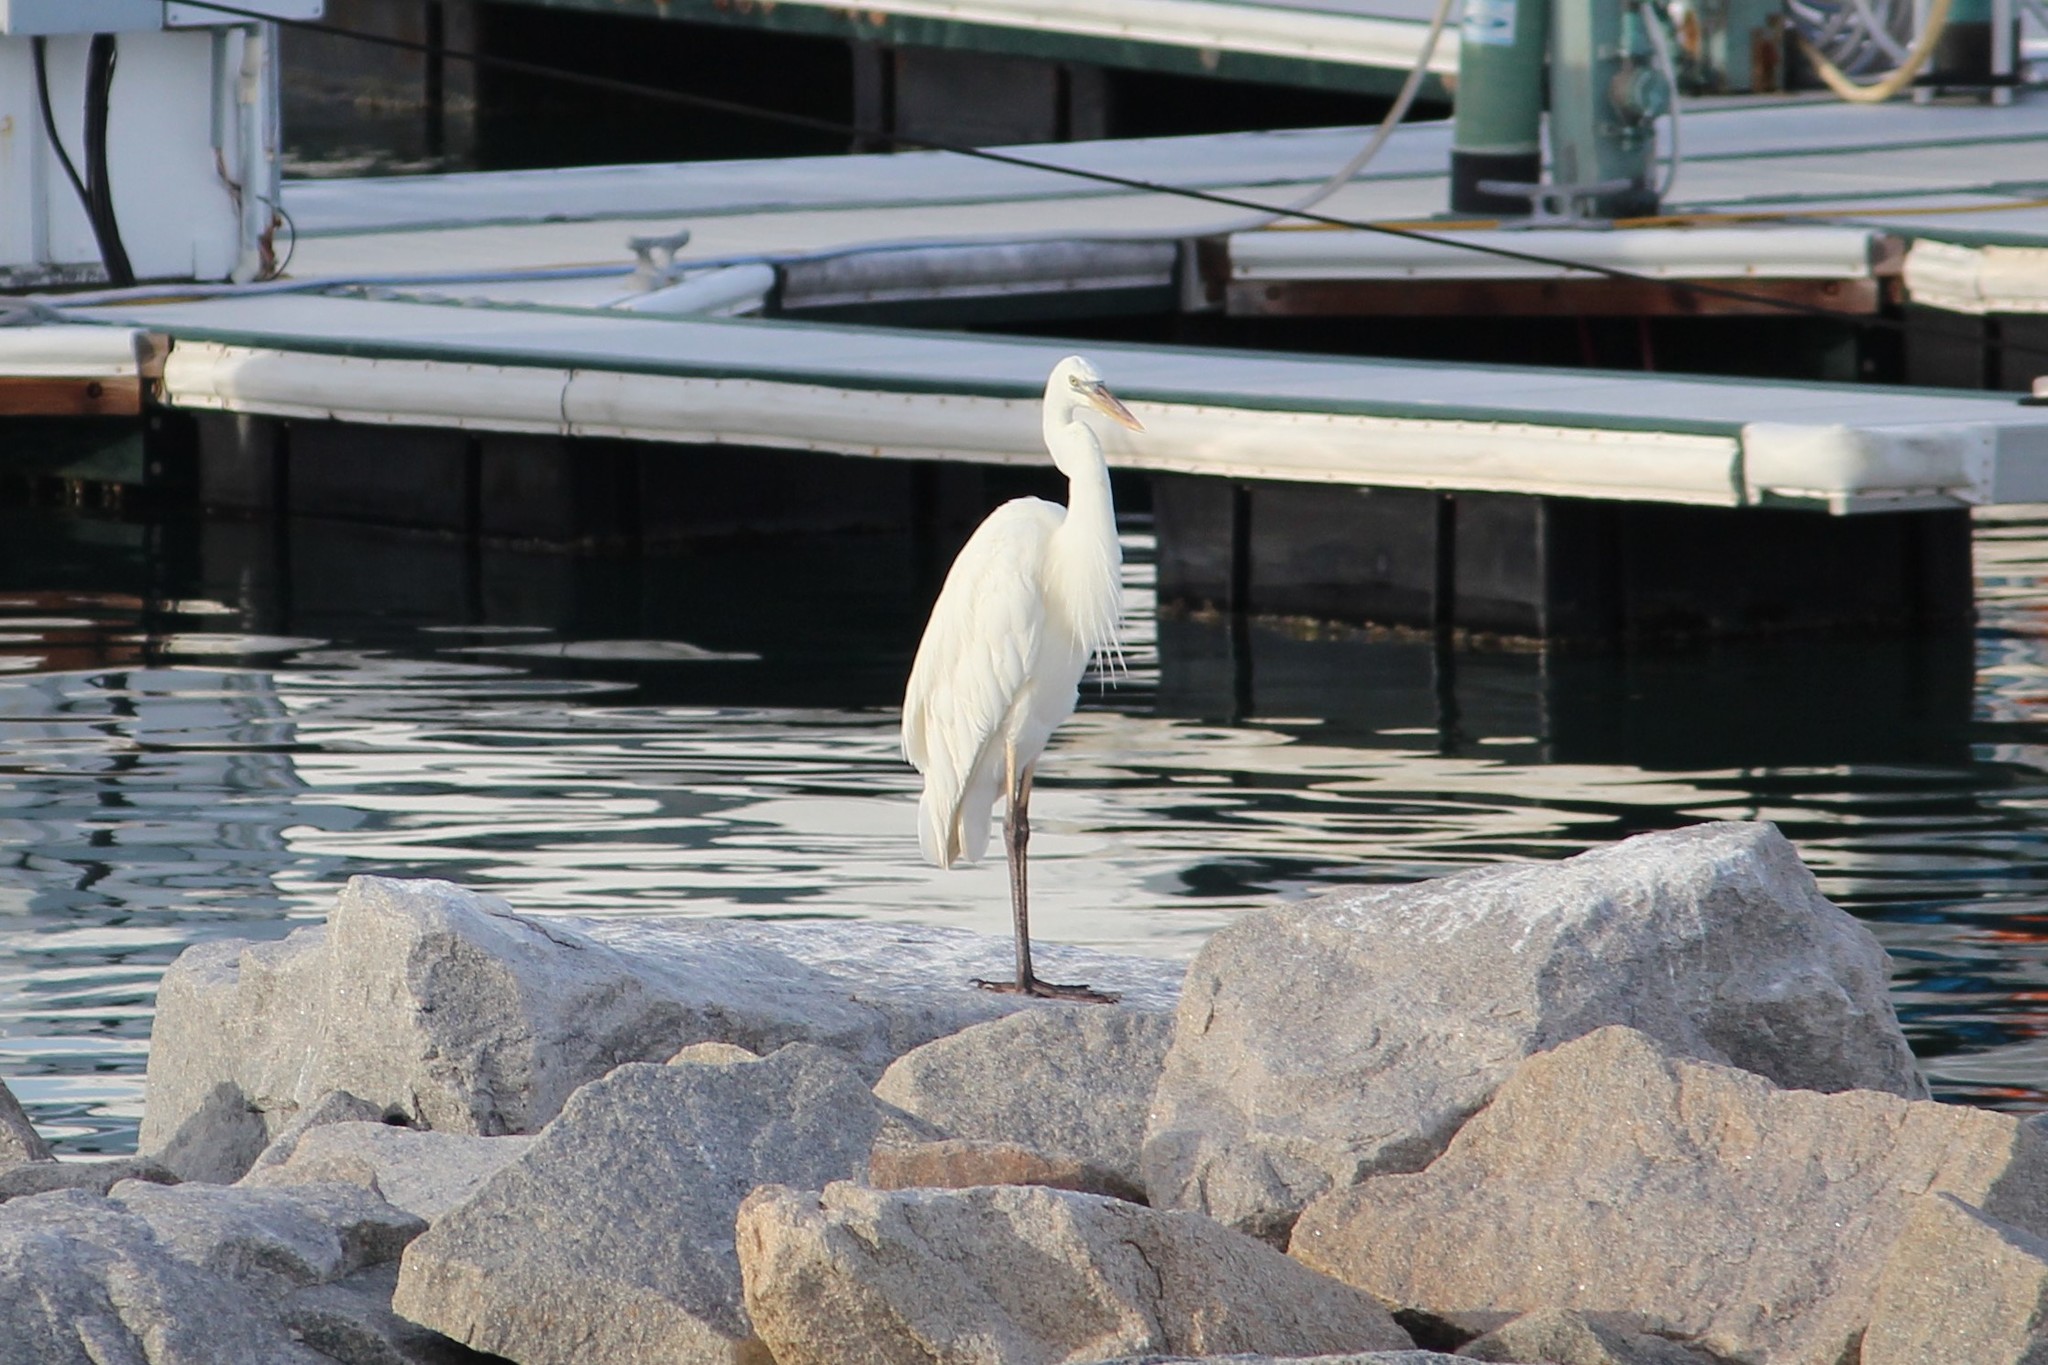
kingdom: Animalia
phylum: Chordata
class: Aves
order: Pelecaniformes
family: Ardeidae
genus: Ardea
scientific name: Ardea herodias
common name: Great blue heron
